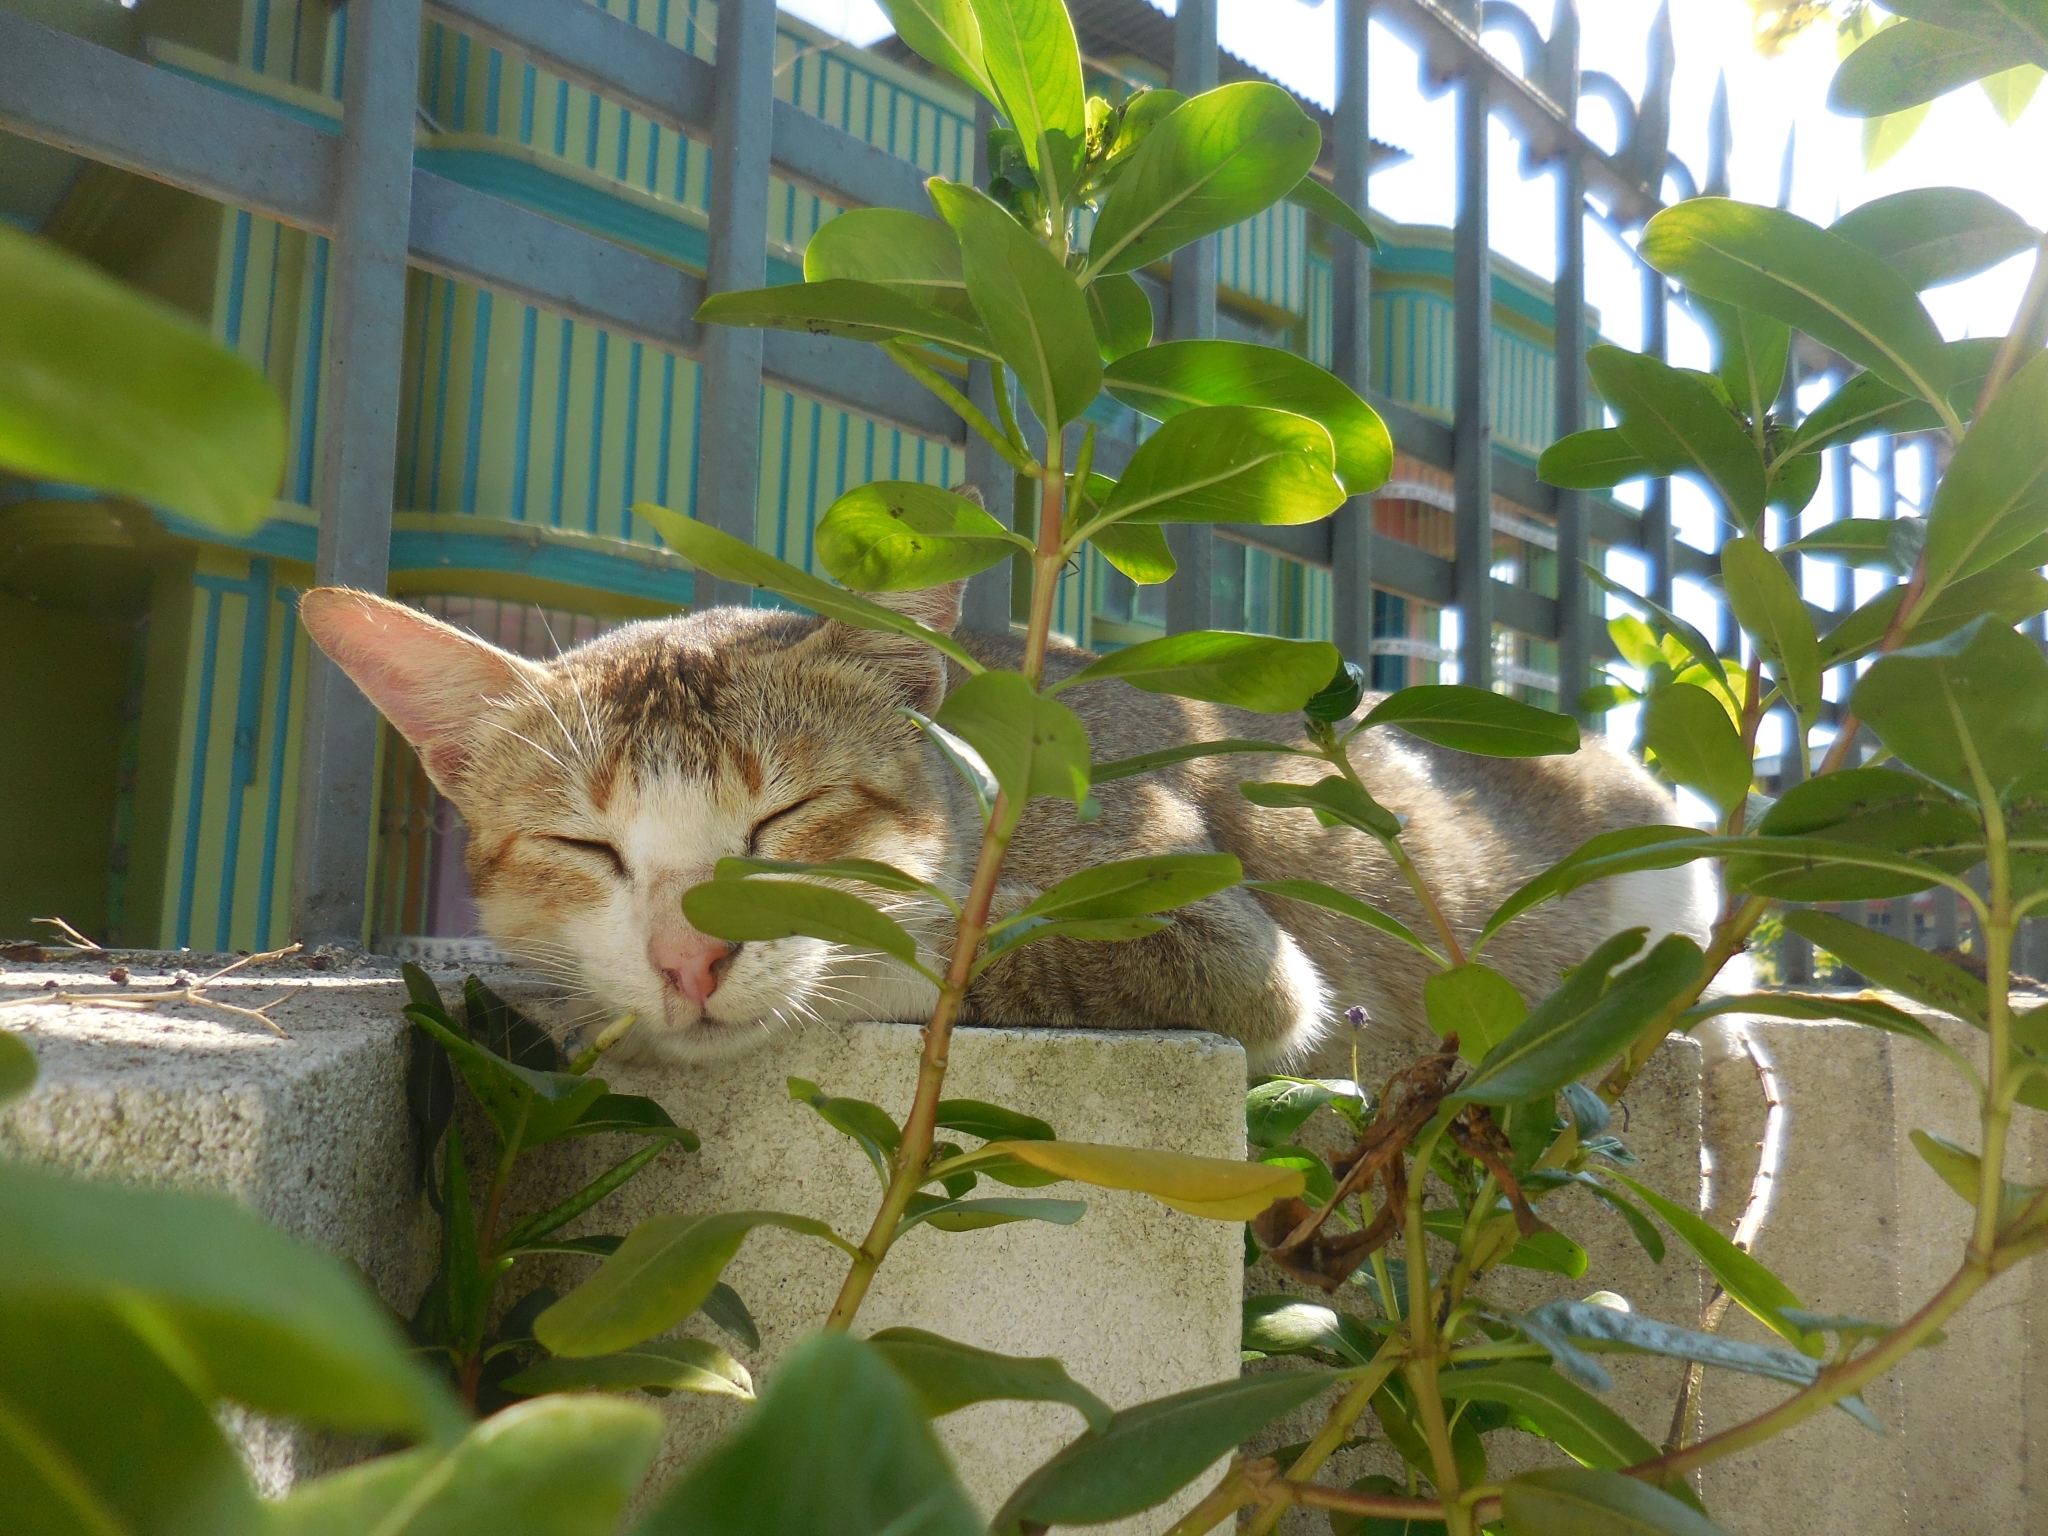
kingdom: Animalia
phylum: Chordata
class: Mammalia
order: Carnivora
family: Felidae
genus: Felis
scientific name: Felis catus
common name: Domestic cat
